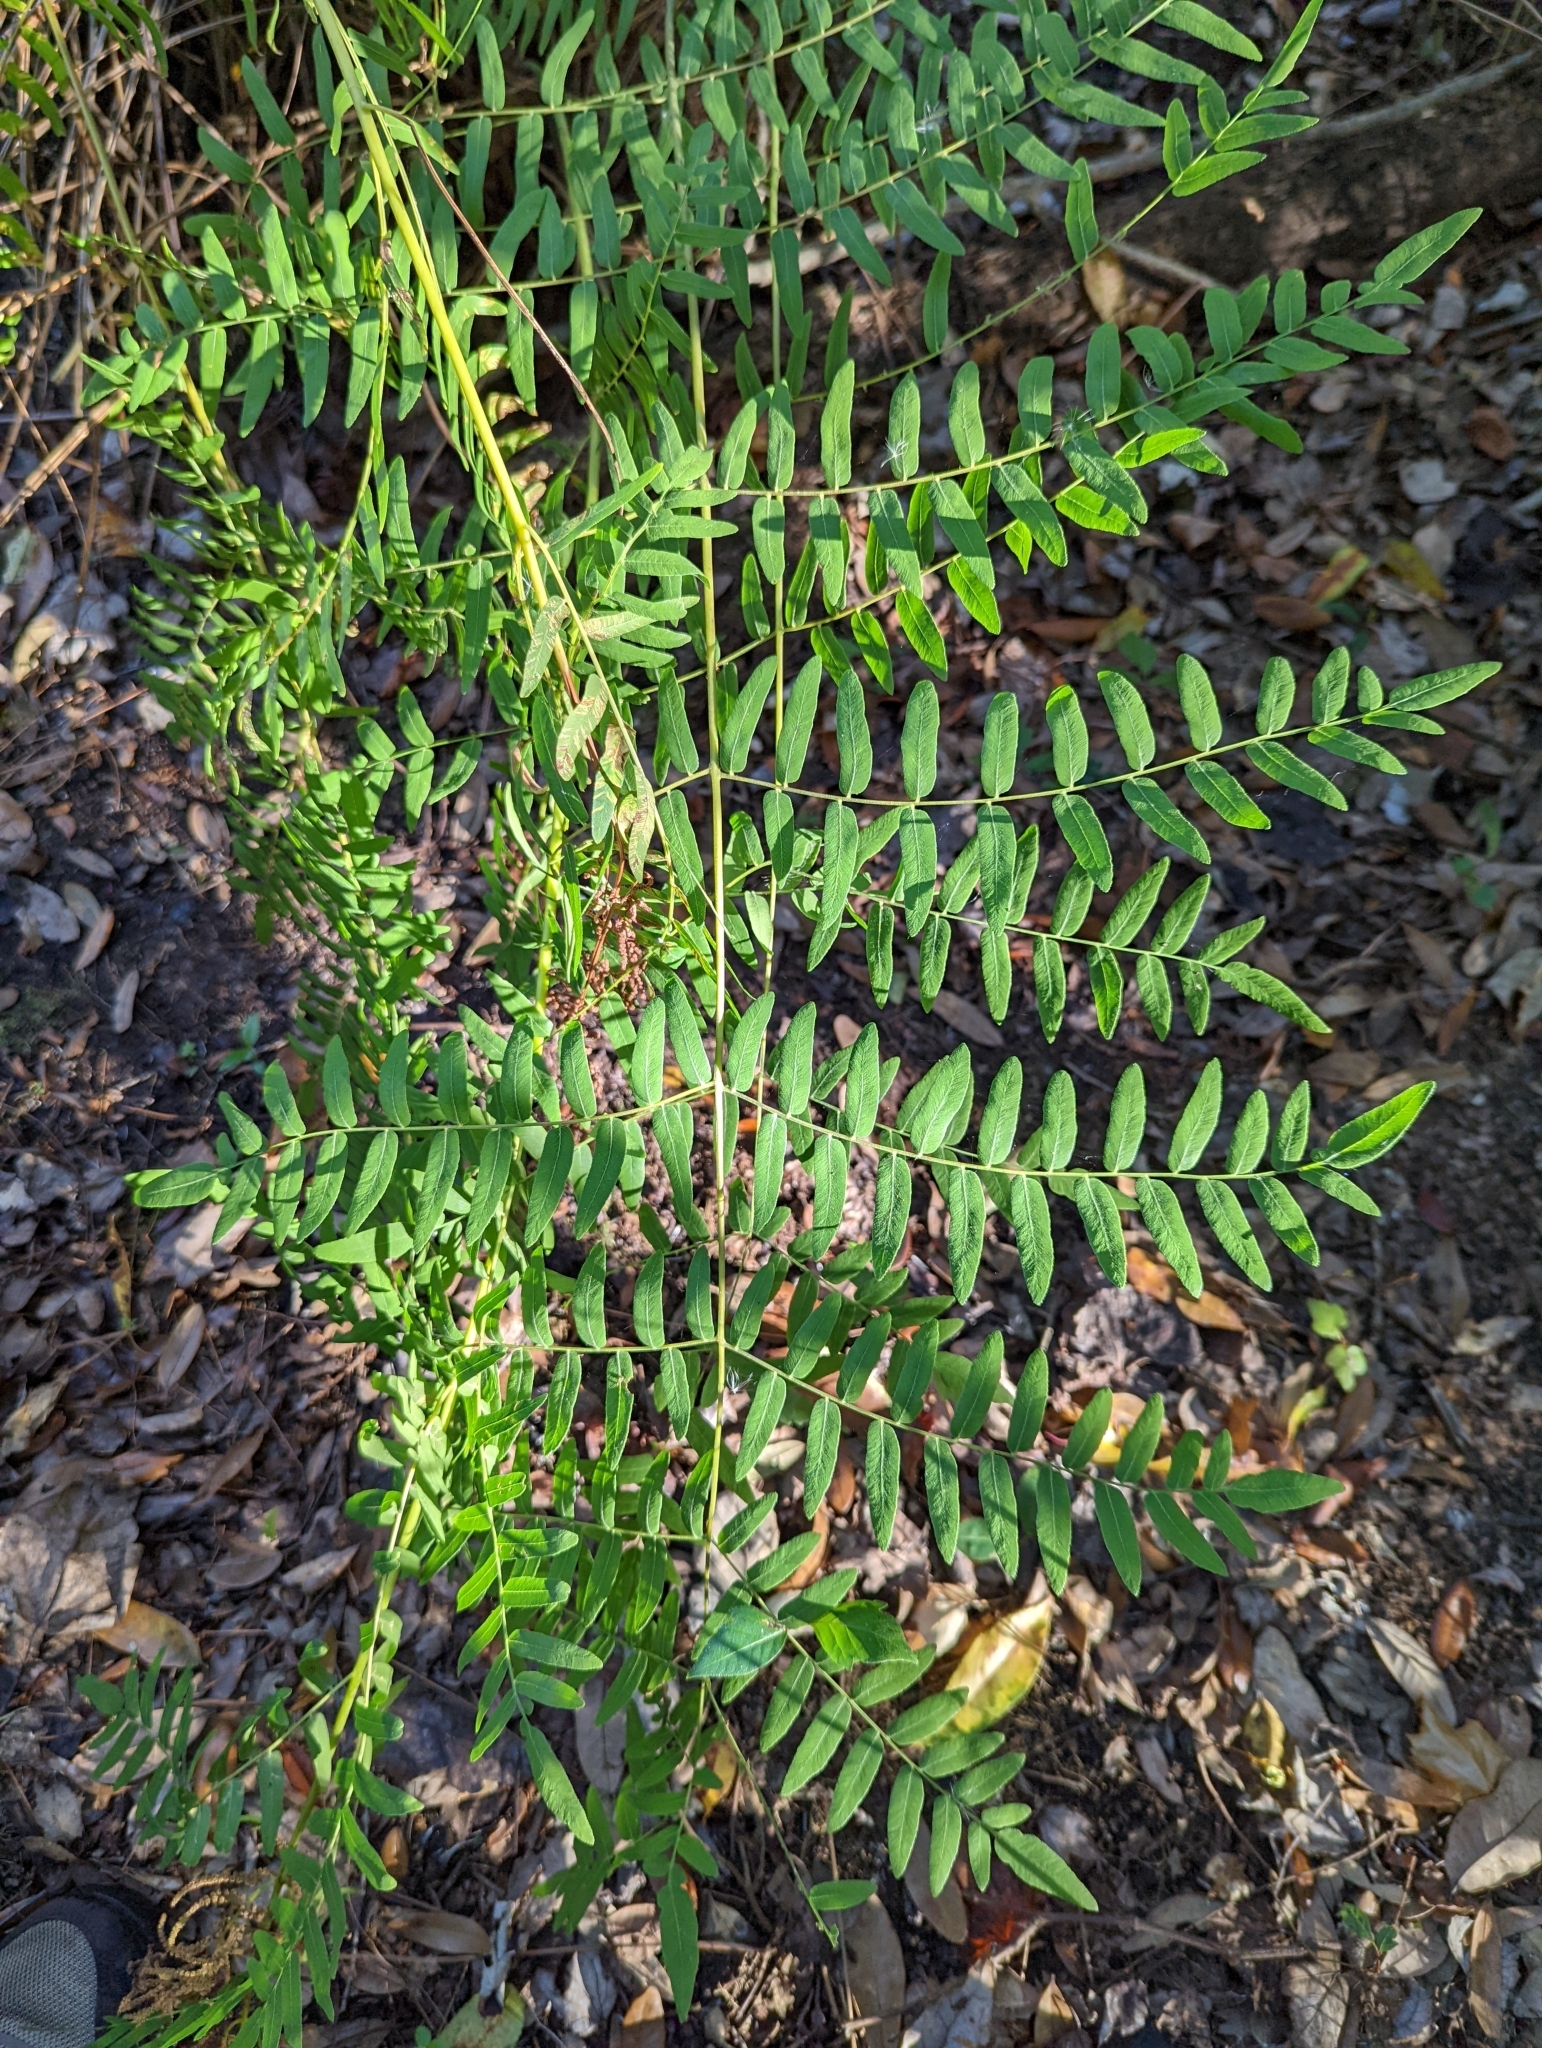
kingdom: Plantae
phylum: Tracheophyta
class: Polypodiopsida
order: Osmundales
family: Osmundaceae
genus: Osmunda
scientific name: Osmunda spectabilis
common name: American royal fern
